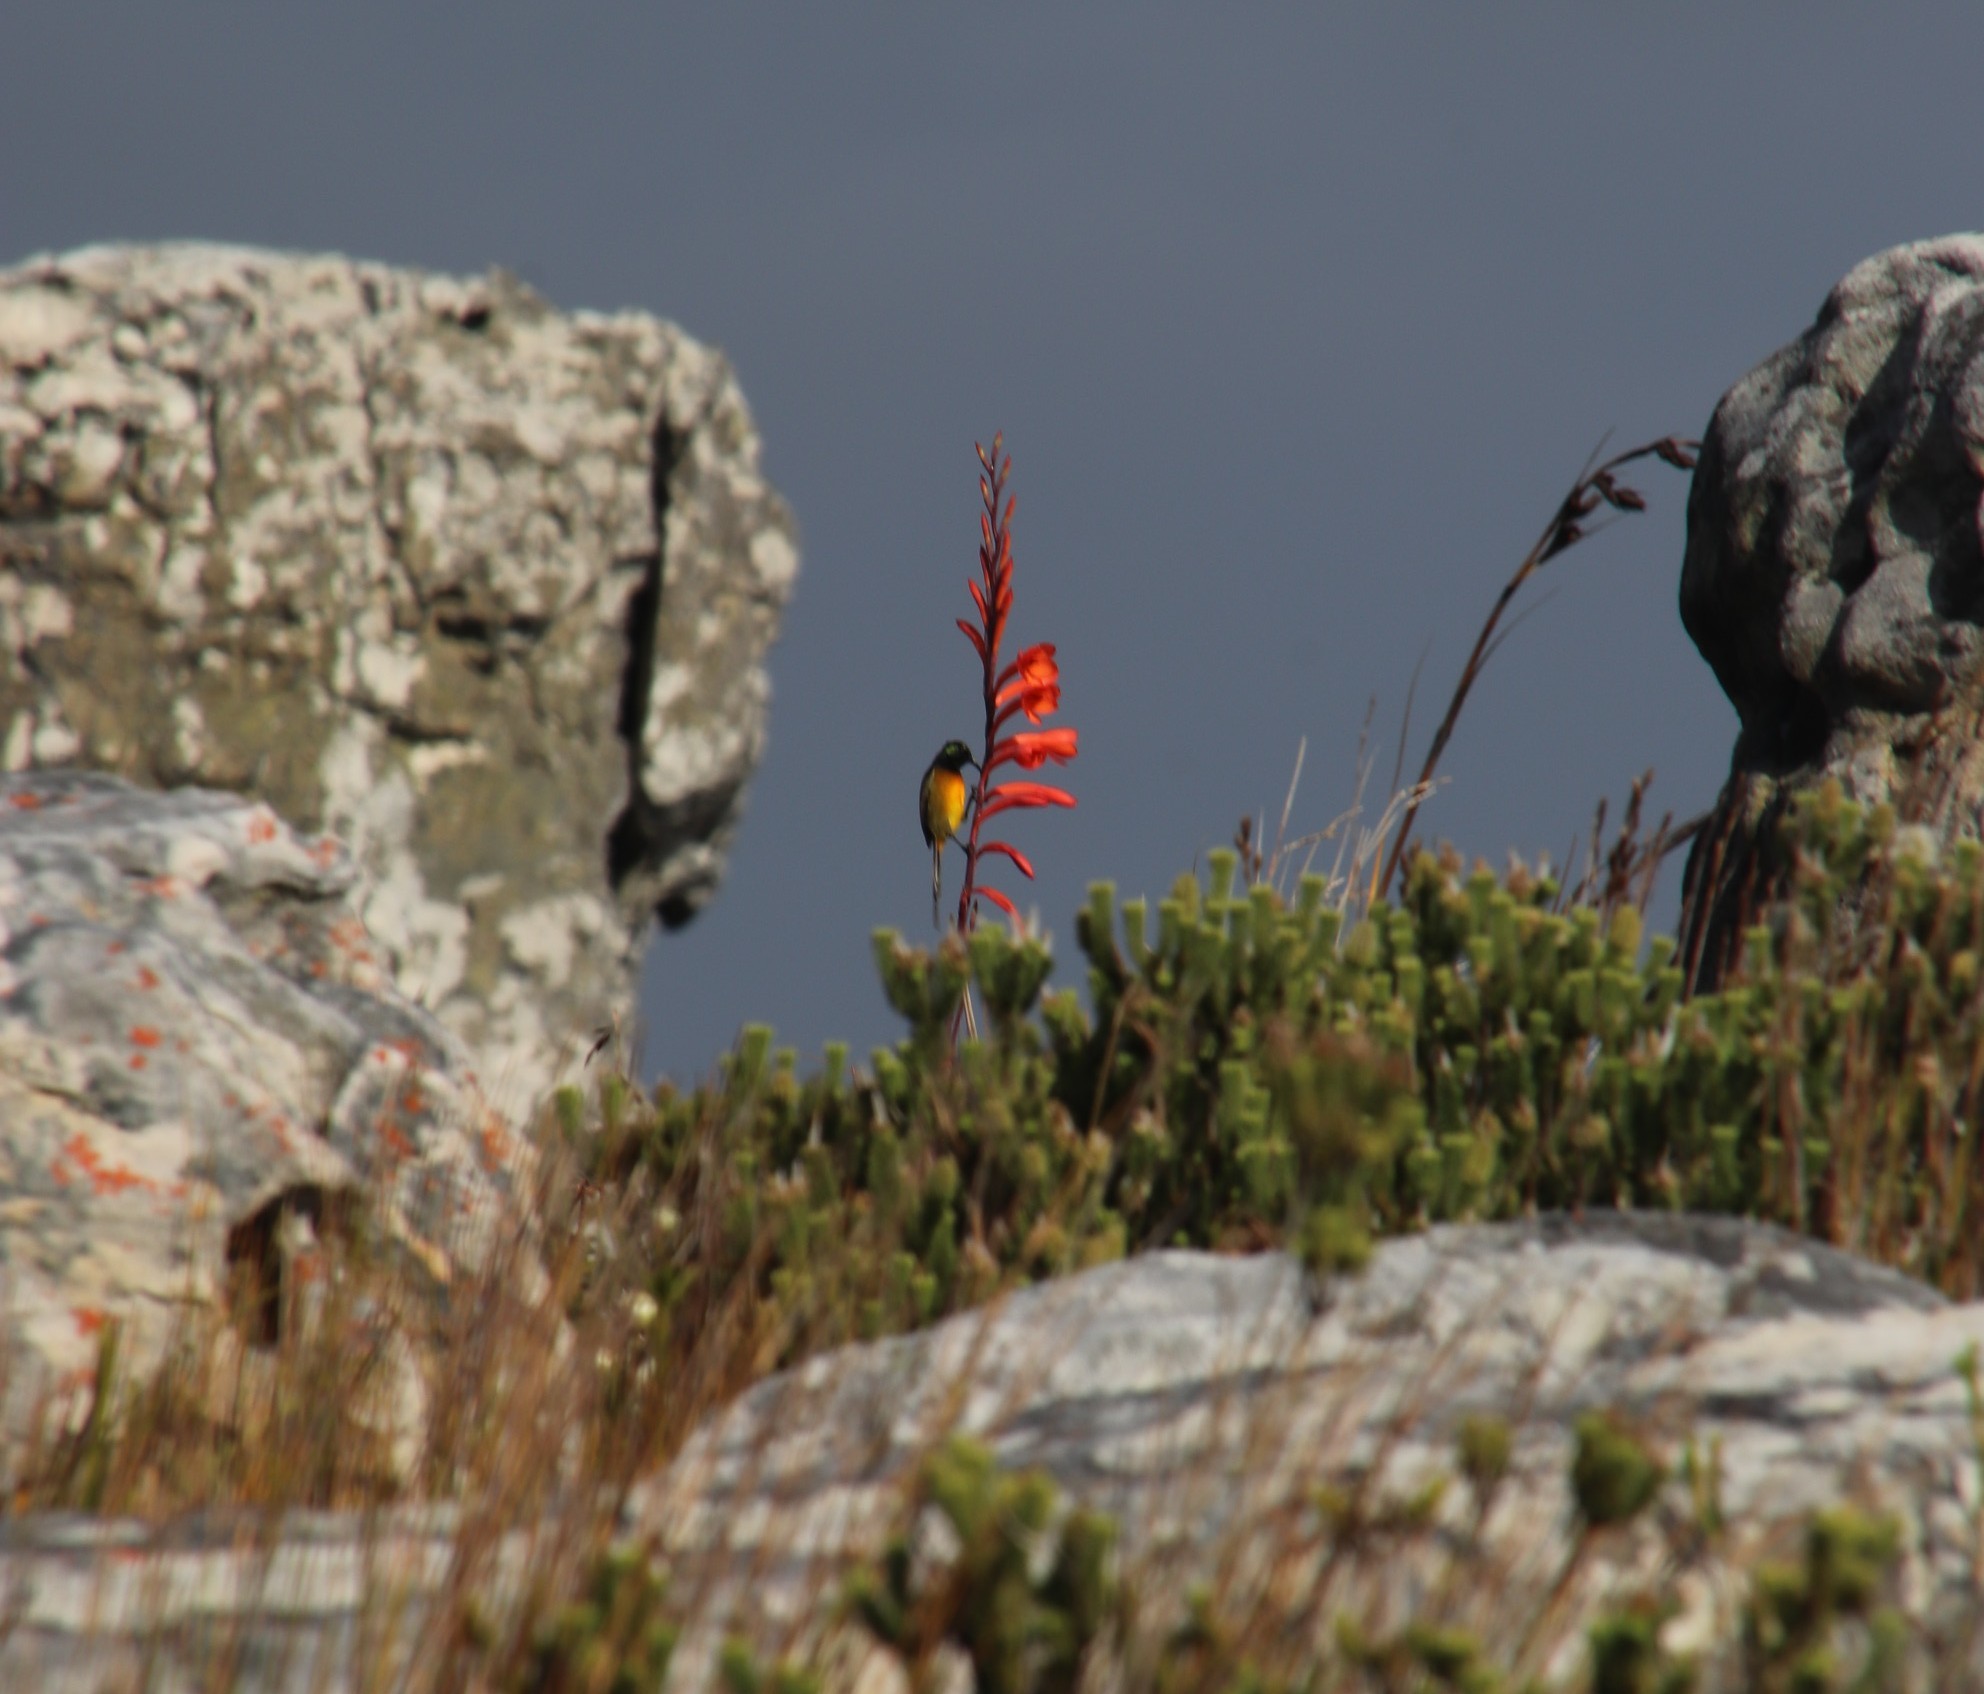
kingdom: Animalia
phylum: Chordata
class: Aves
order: Passeriformes
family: Nectariniidae
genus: Anthobaphes
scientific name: Anthobaphes violacea
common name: Orange-breasted sunbird
